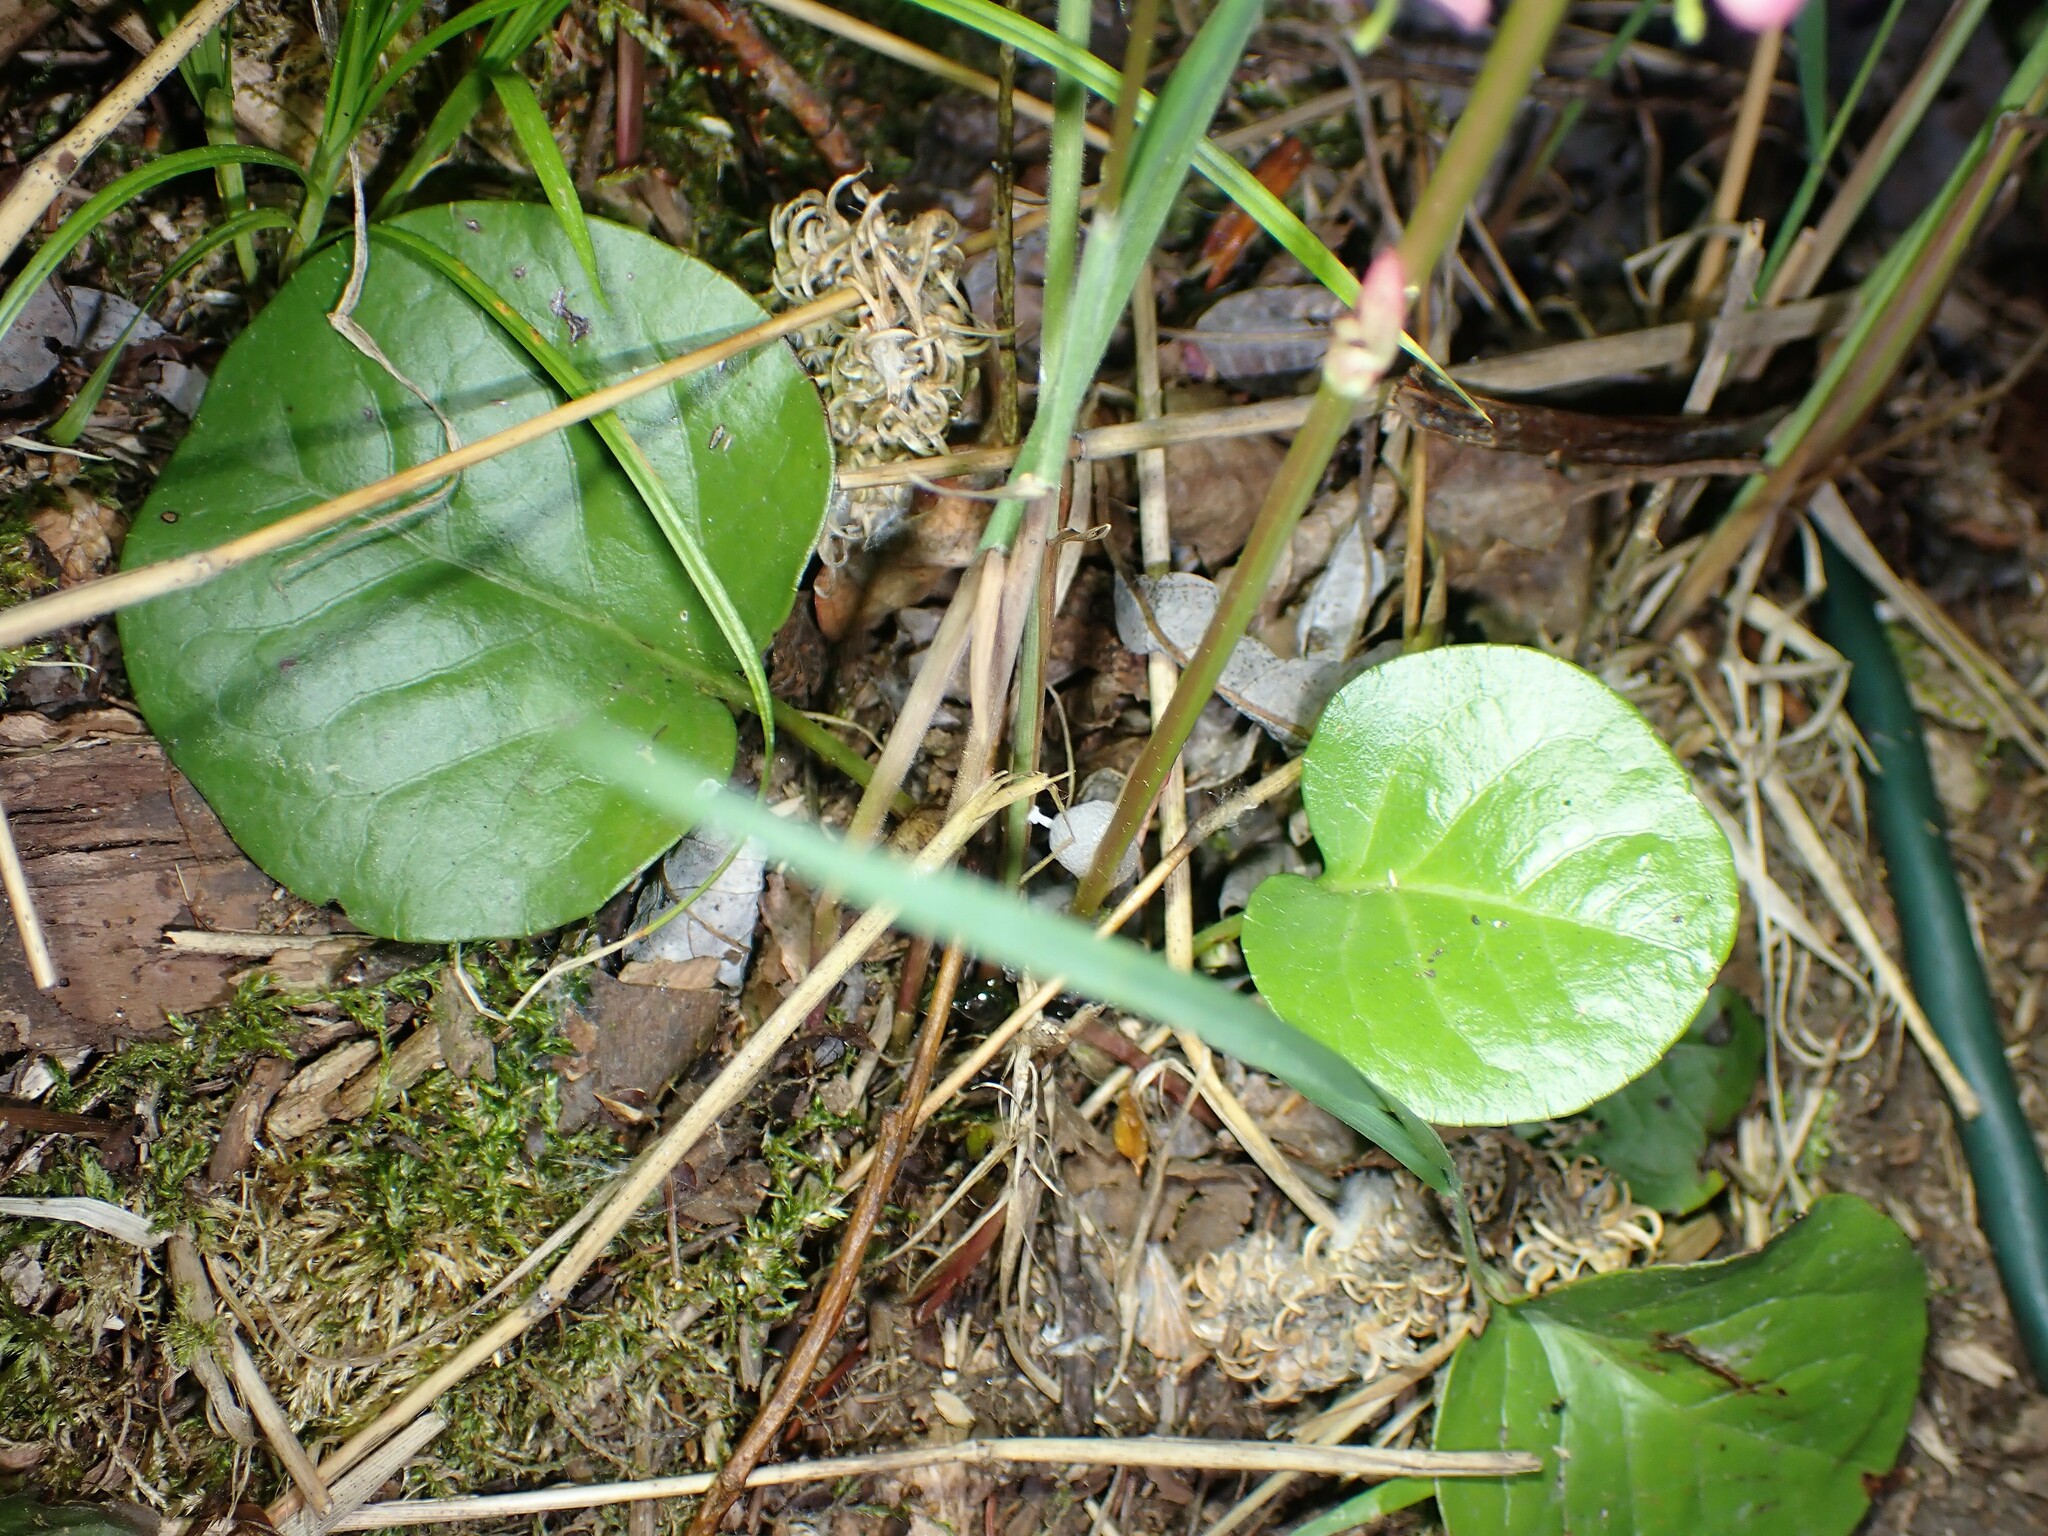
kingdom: Plantae
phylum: Tracheophyta
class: Magnoliopsida
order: Ericales
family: Ericaceae
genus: Pyrola
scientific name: Pyrola asarifolia
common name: Bog wintergreen
